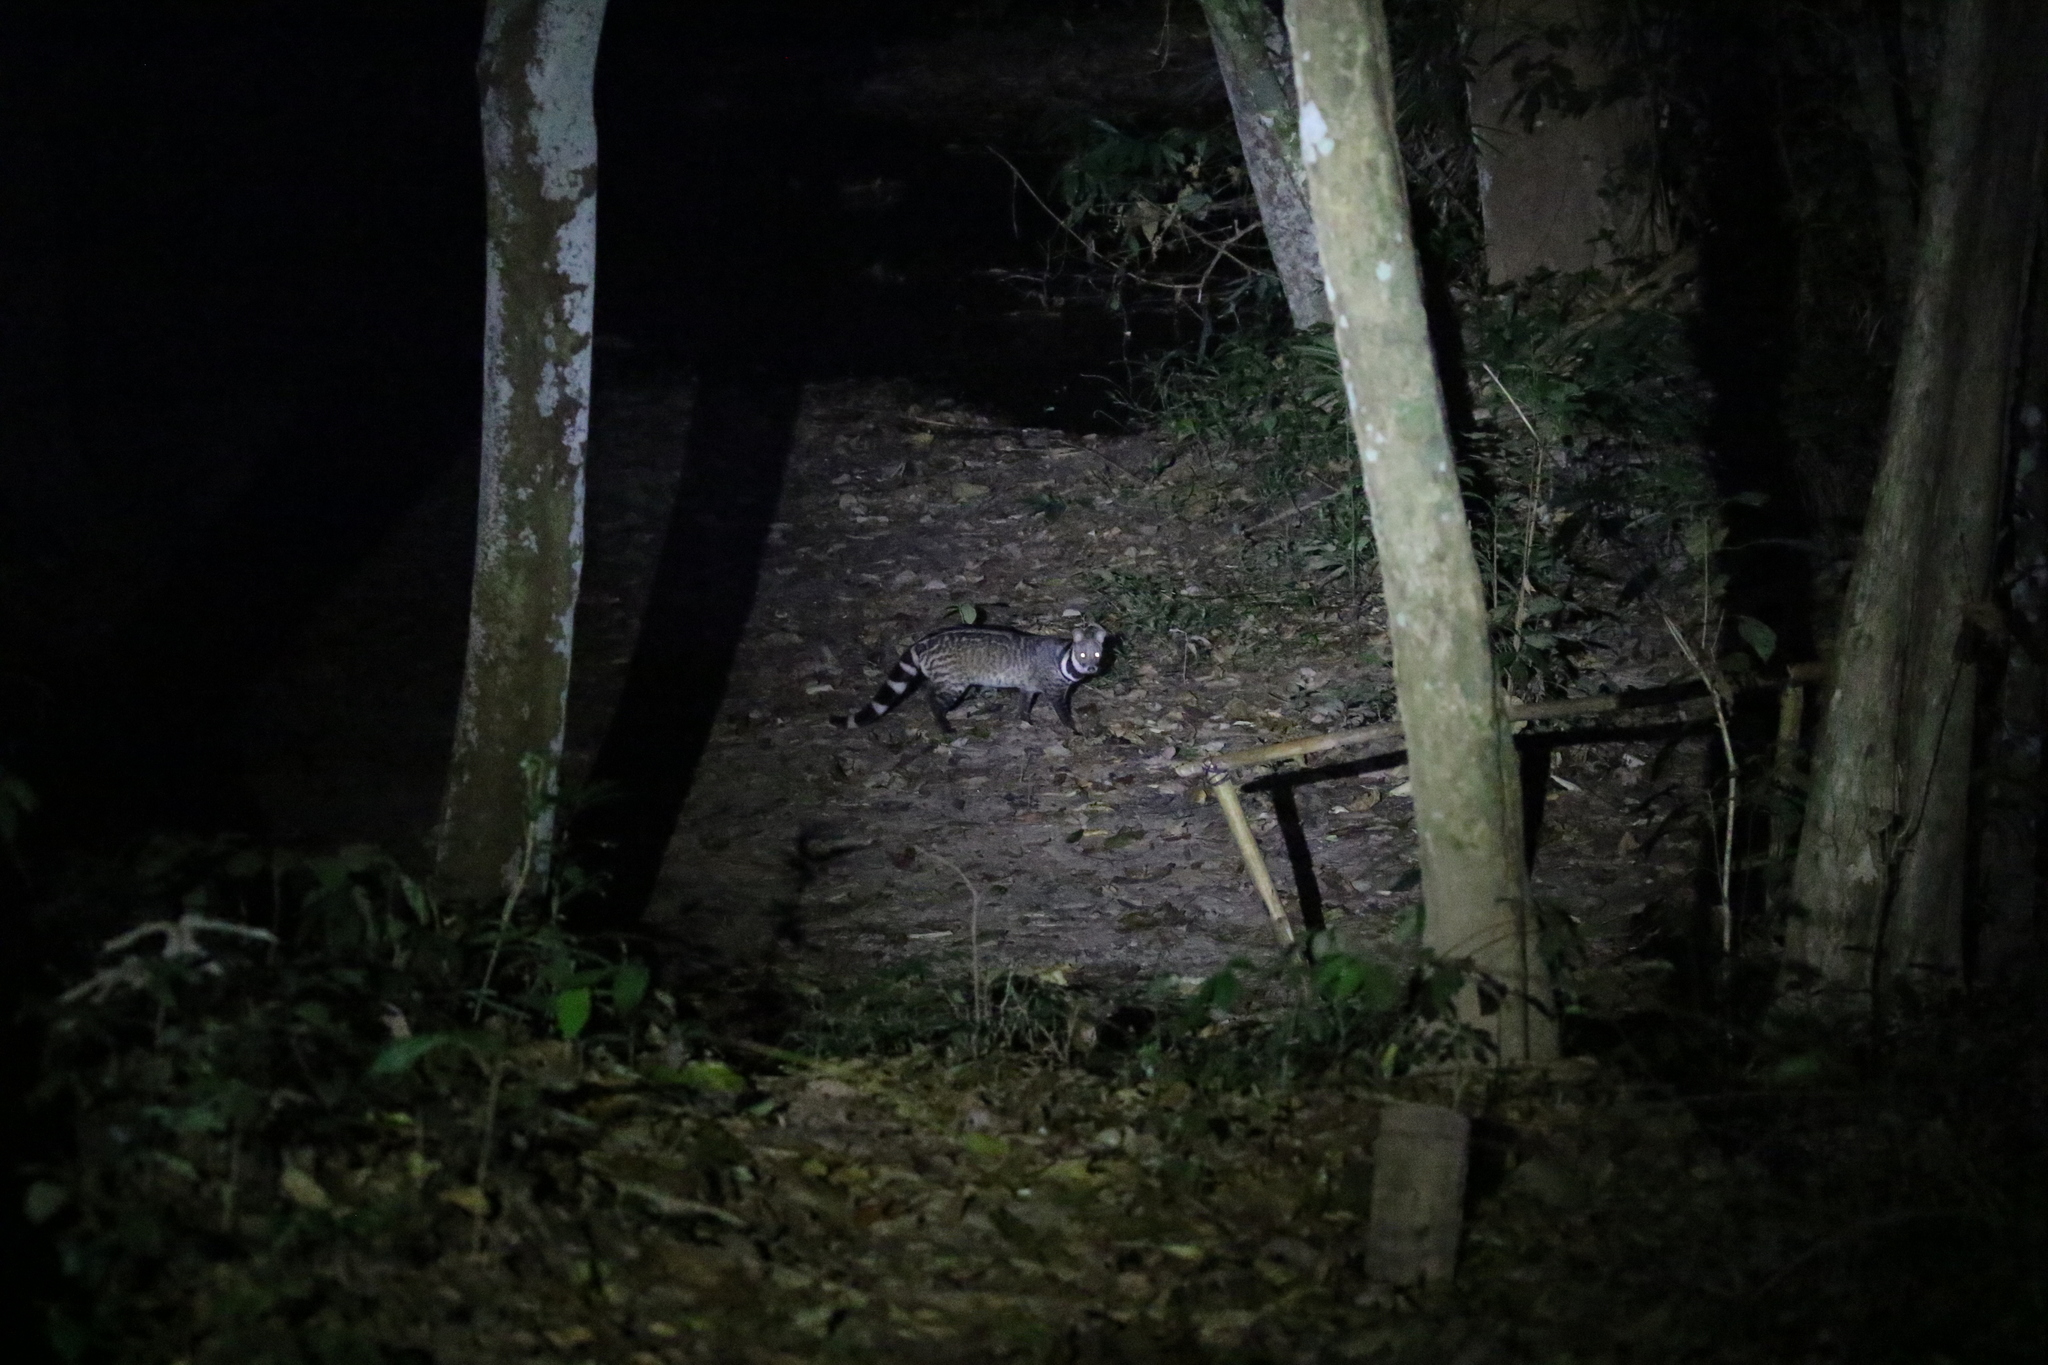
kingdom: Animalia
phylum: Chordata
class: Mammalia
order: Carnivora
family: Viverridae
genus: Viverra
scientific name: Viverra zibetha
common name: Large indian civet
